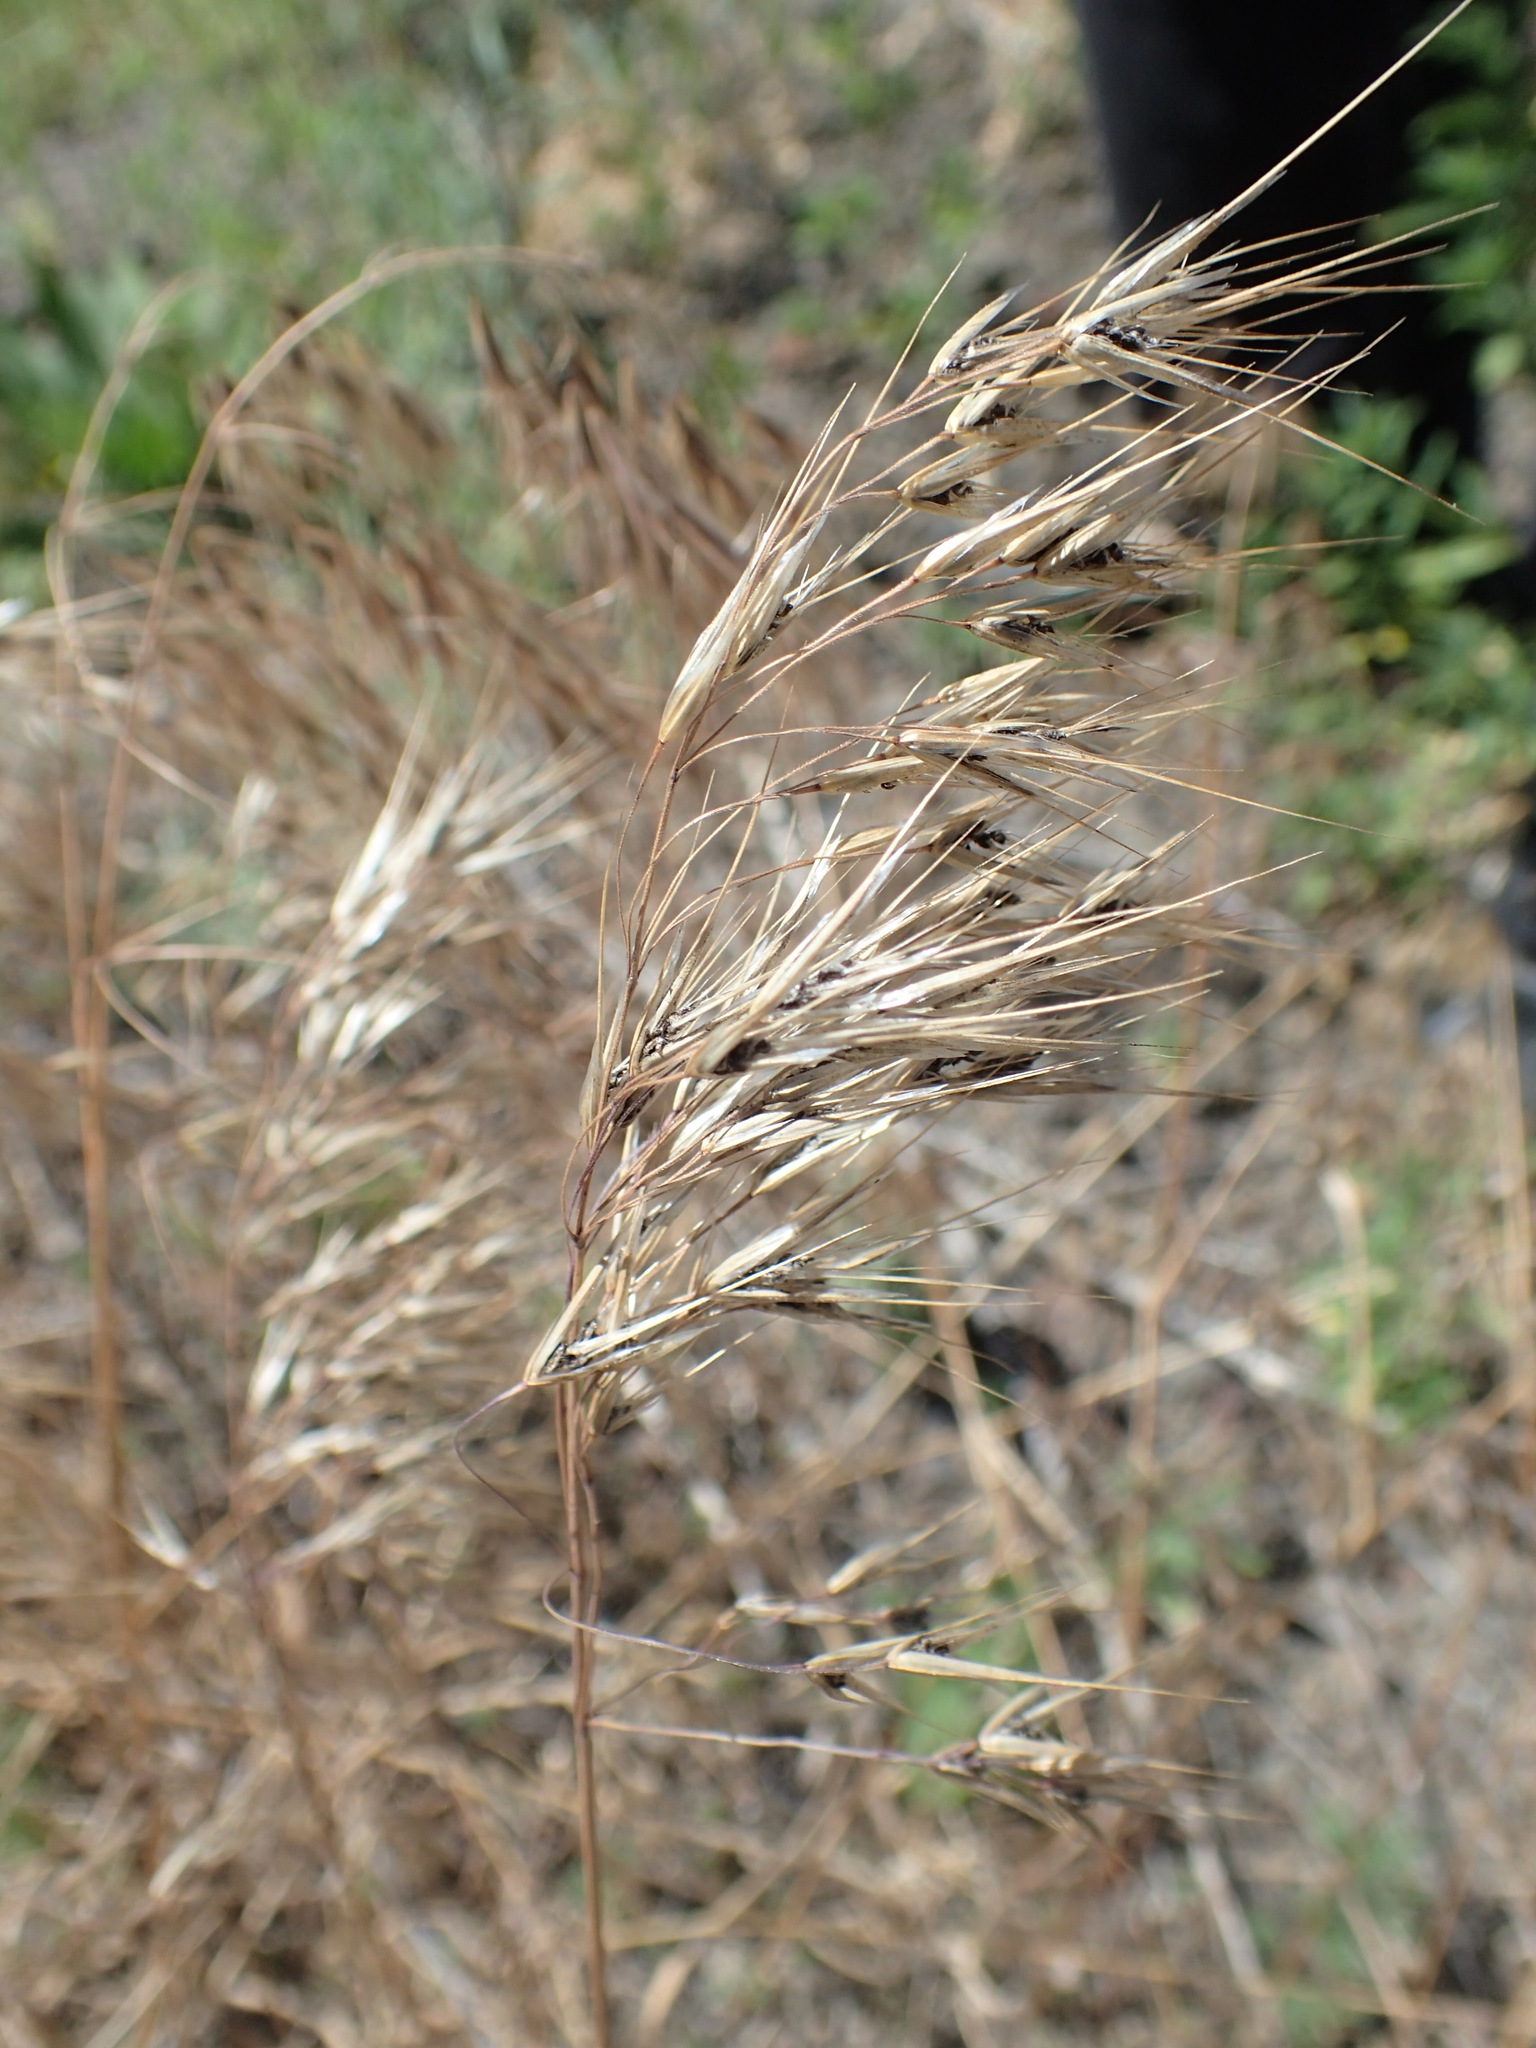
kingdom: Plantae
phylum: Tracheophyta
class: Liliopsida
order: Poales
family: Poaceae
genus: Bromus
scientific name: Bromus tectorum
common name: Cheatgrass
